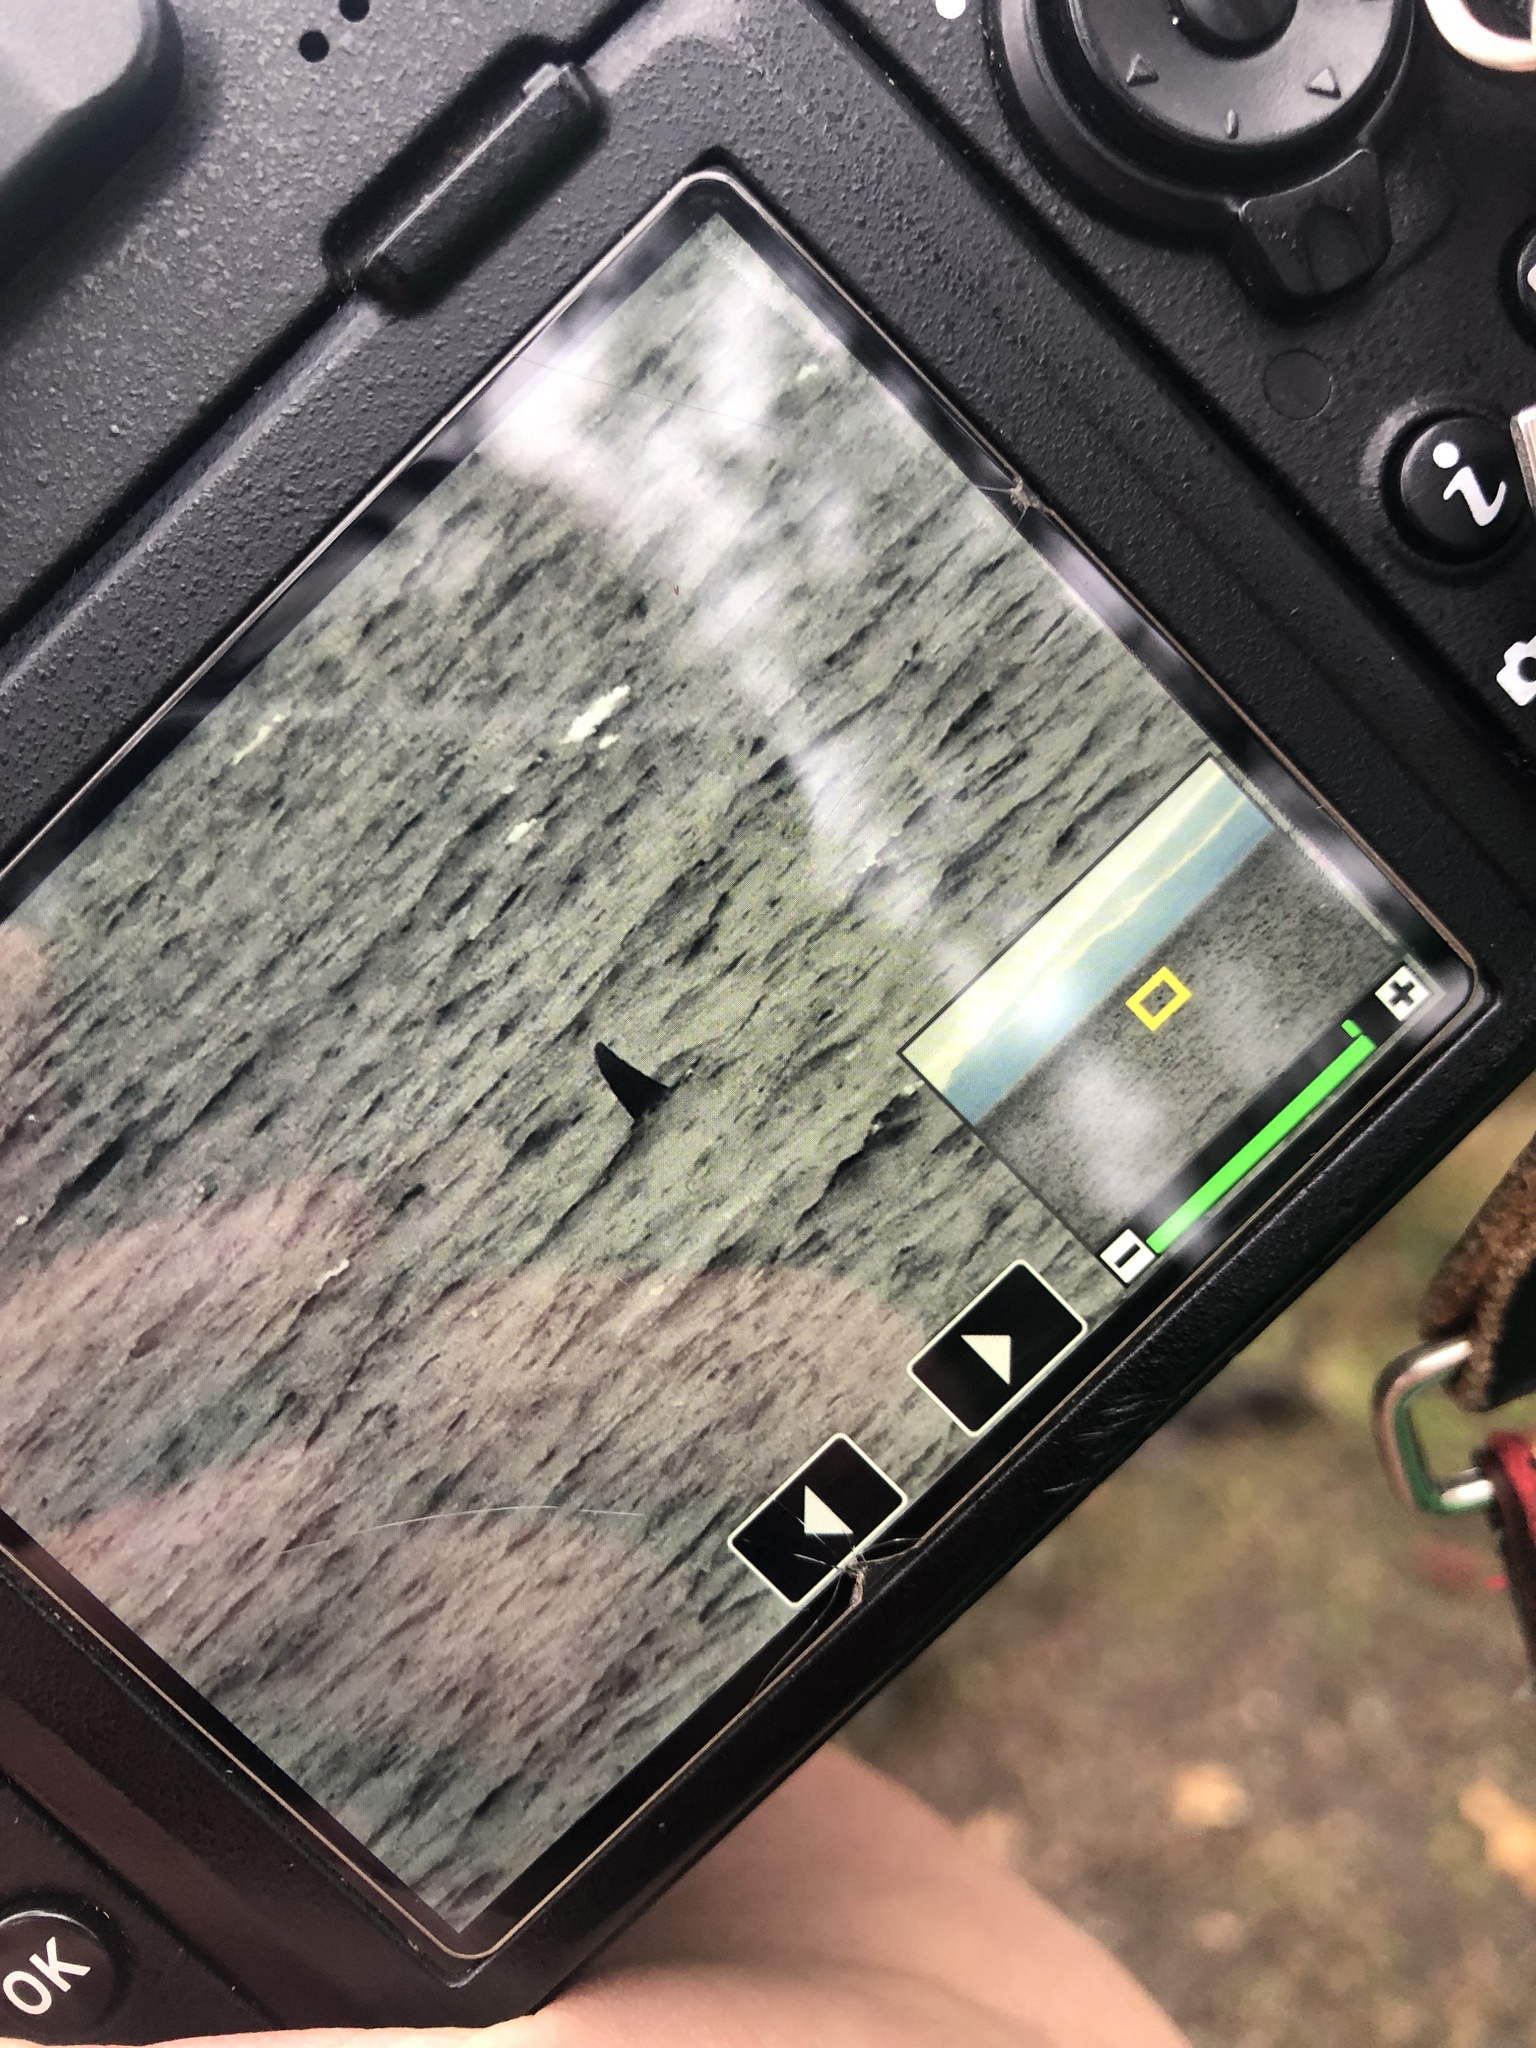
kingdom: Animalia
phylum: Chordata
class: Mammalia
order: Cetacea
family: Delphinidae
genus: Orcinus
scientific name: Orcinus orca
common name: Killer whale
